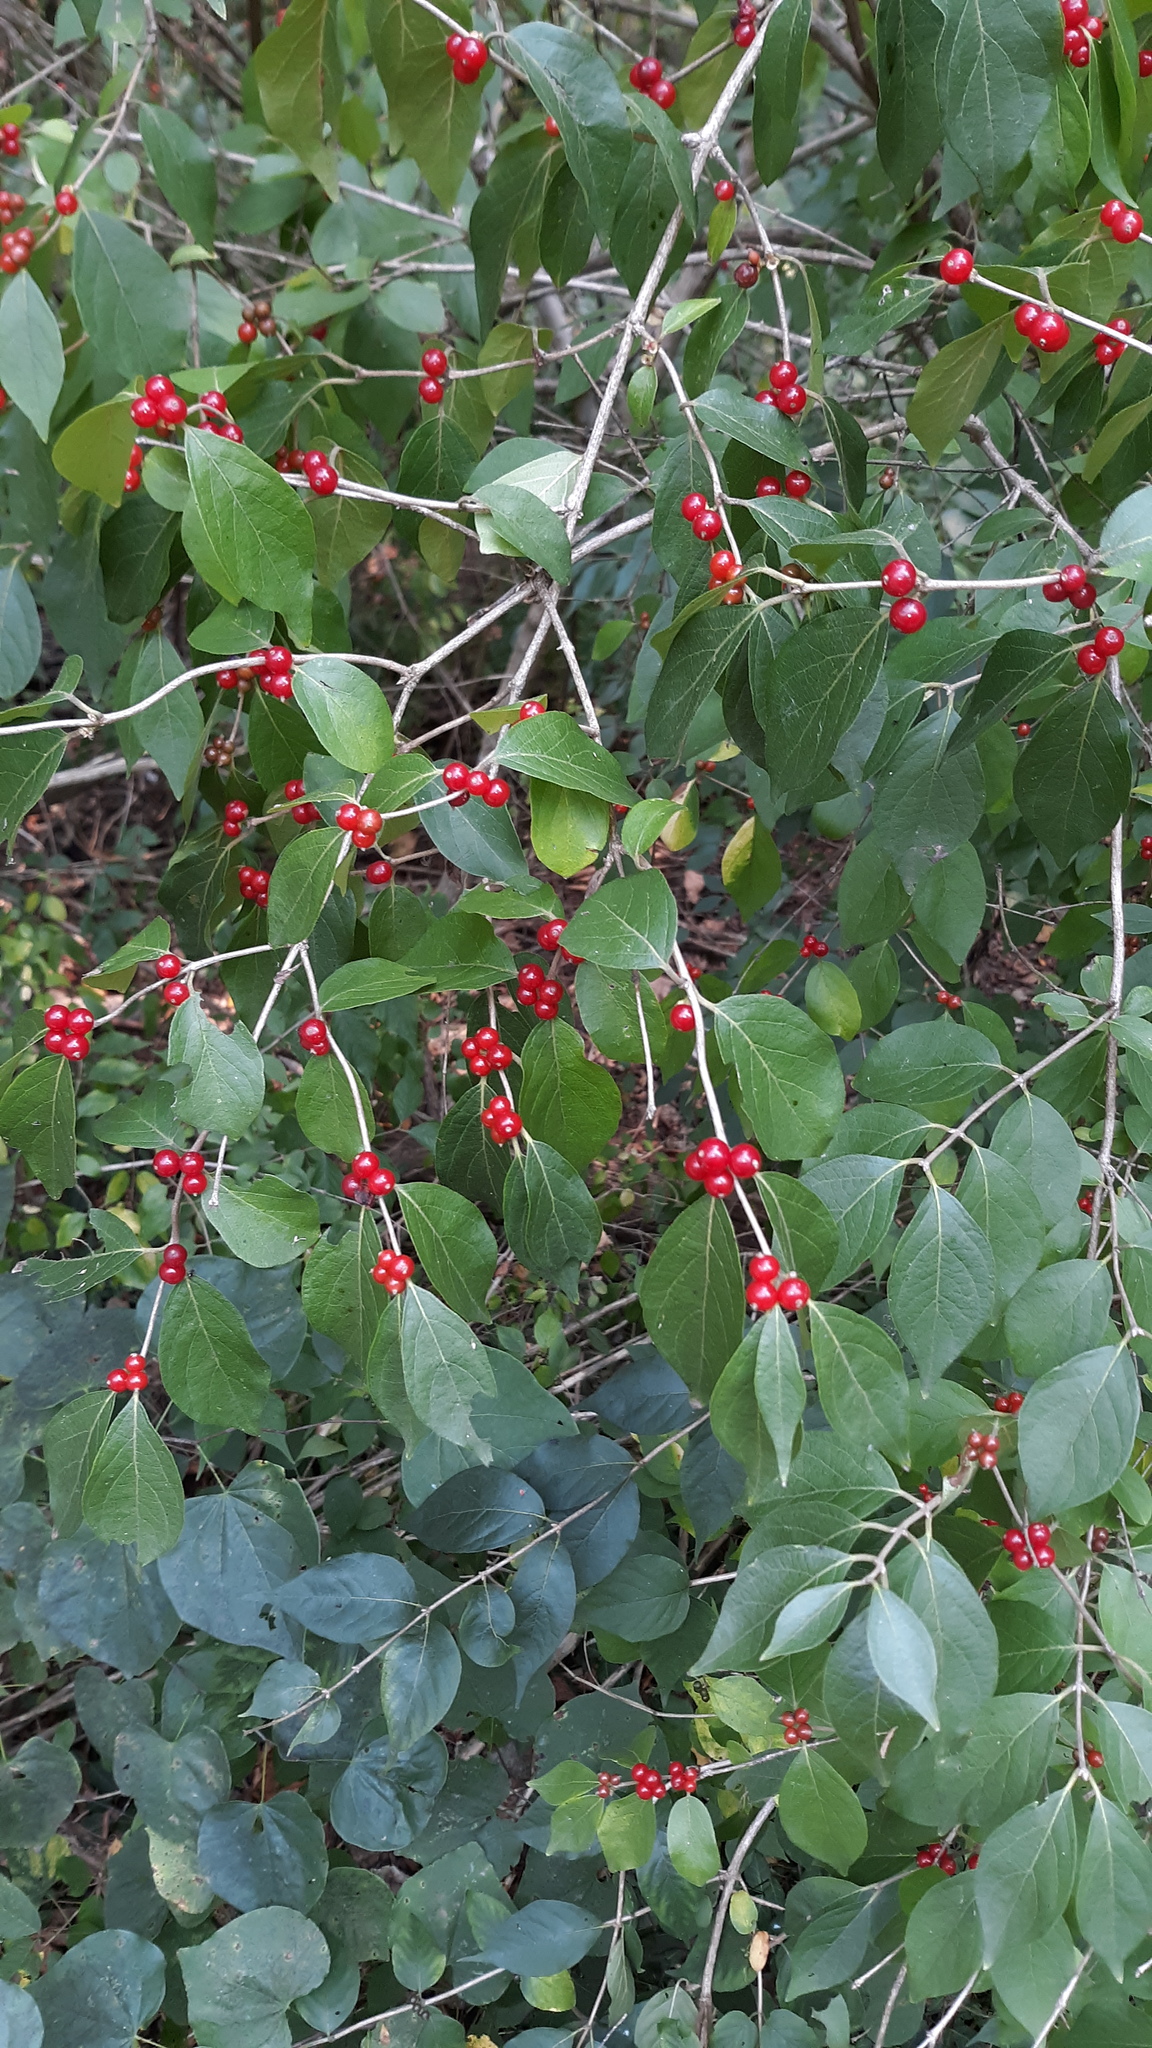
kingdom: Plantae
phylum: Tracheophyta
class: Magnoliopsida
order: Dipsacales
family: Caprifoliaceae
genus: Lonicera
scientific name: Lonicera maackii
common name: Amur honeysuckle
